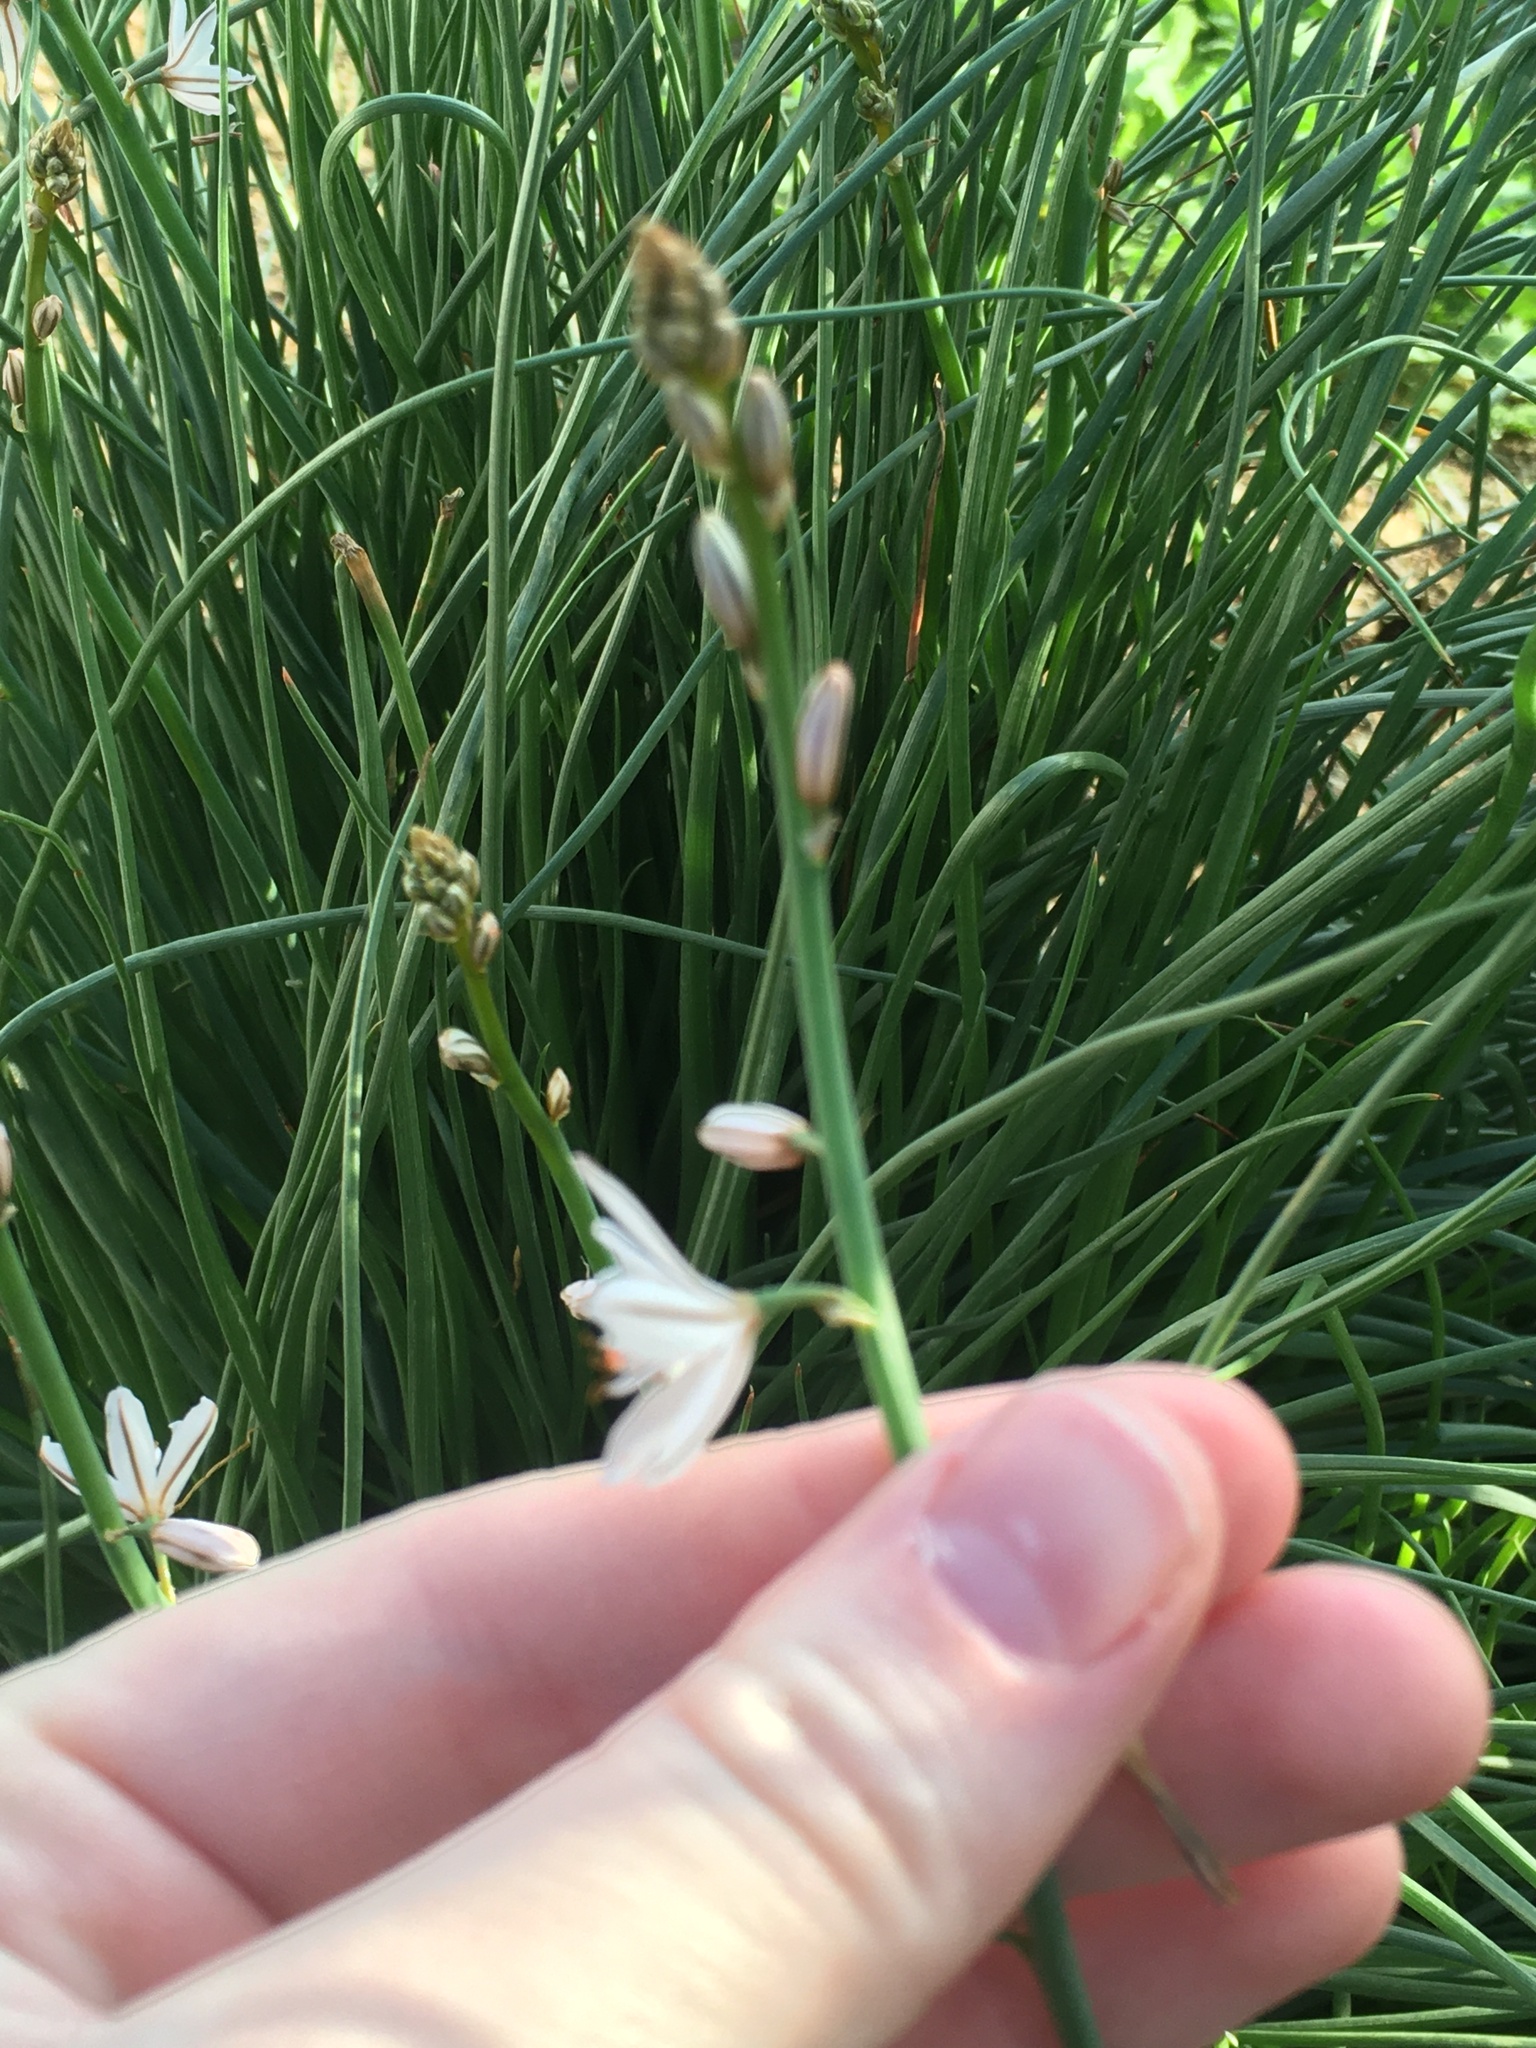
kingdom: Plantae
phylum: Tracheophyta
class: Liliopsida
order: Asparagales
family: Asphodelaceae
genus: Asphodelus
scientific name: Asphodelus fistulosus
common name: Onionweed
